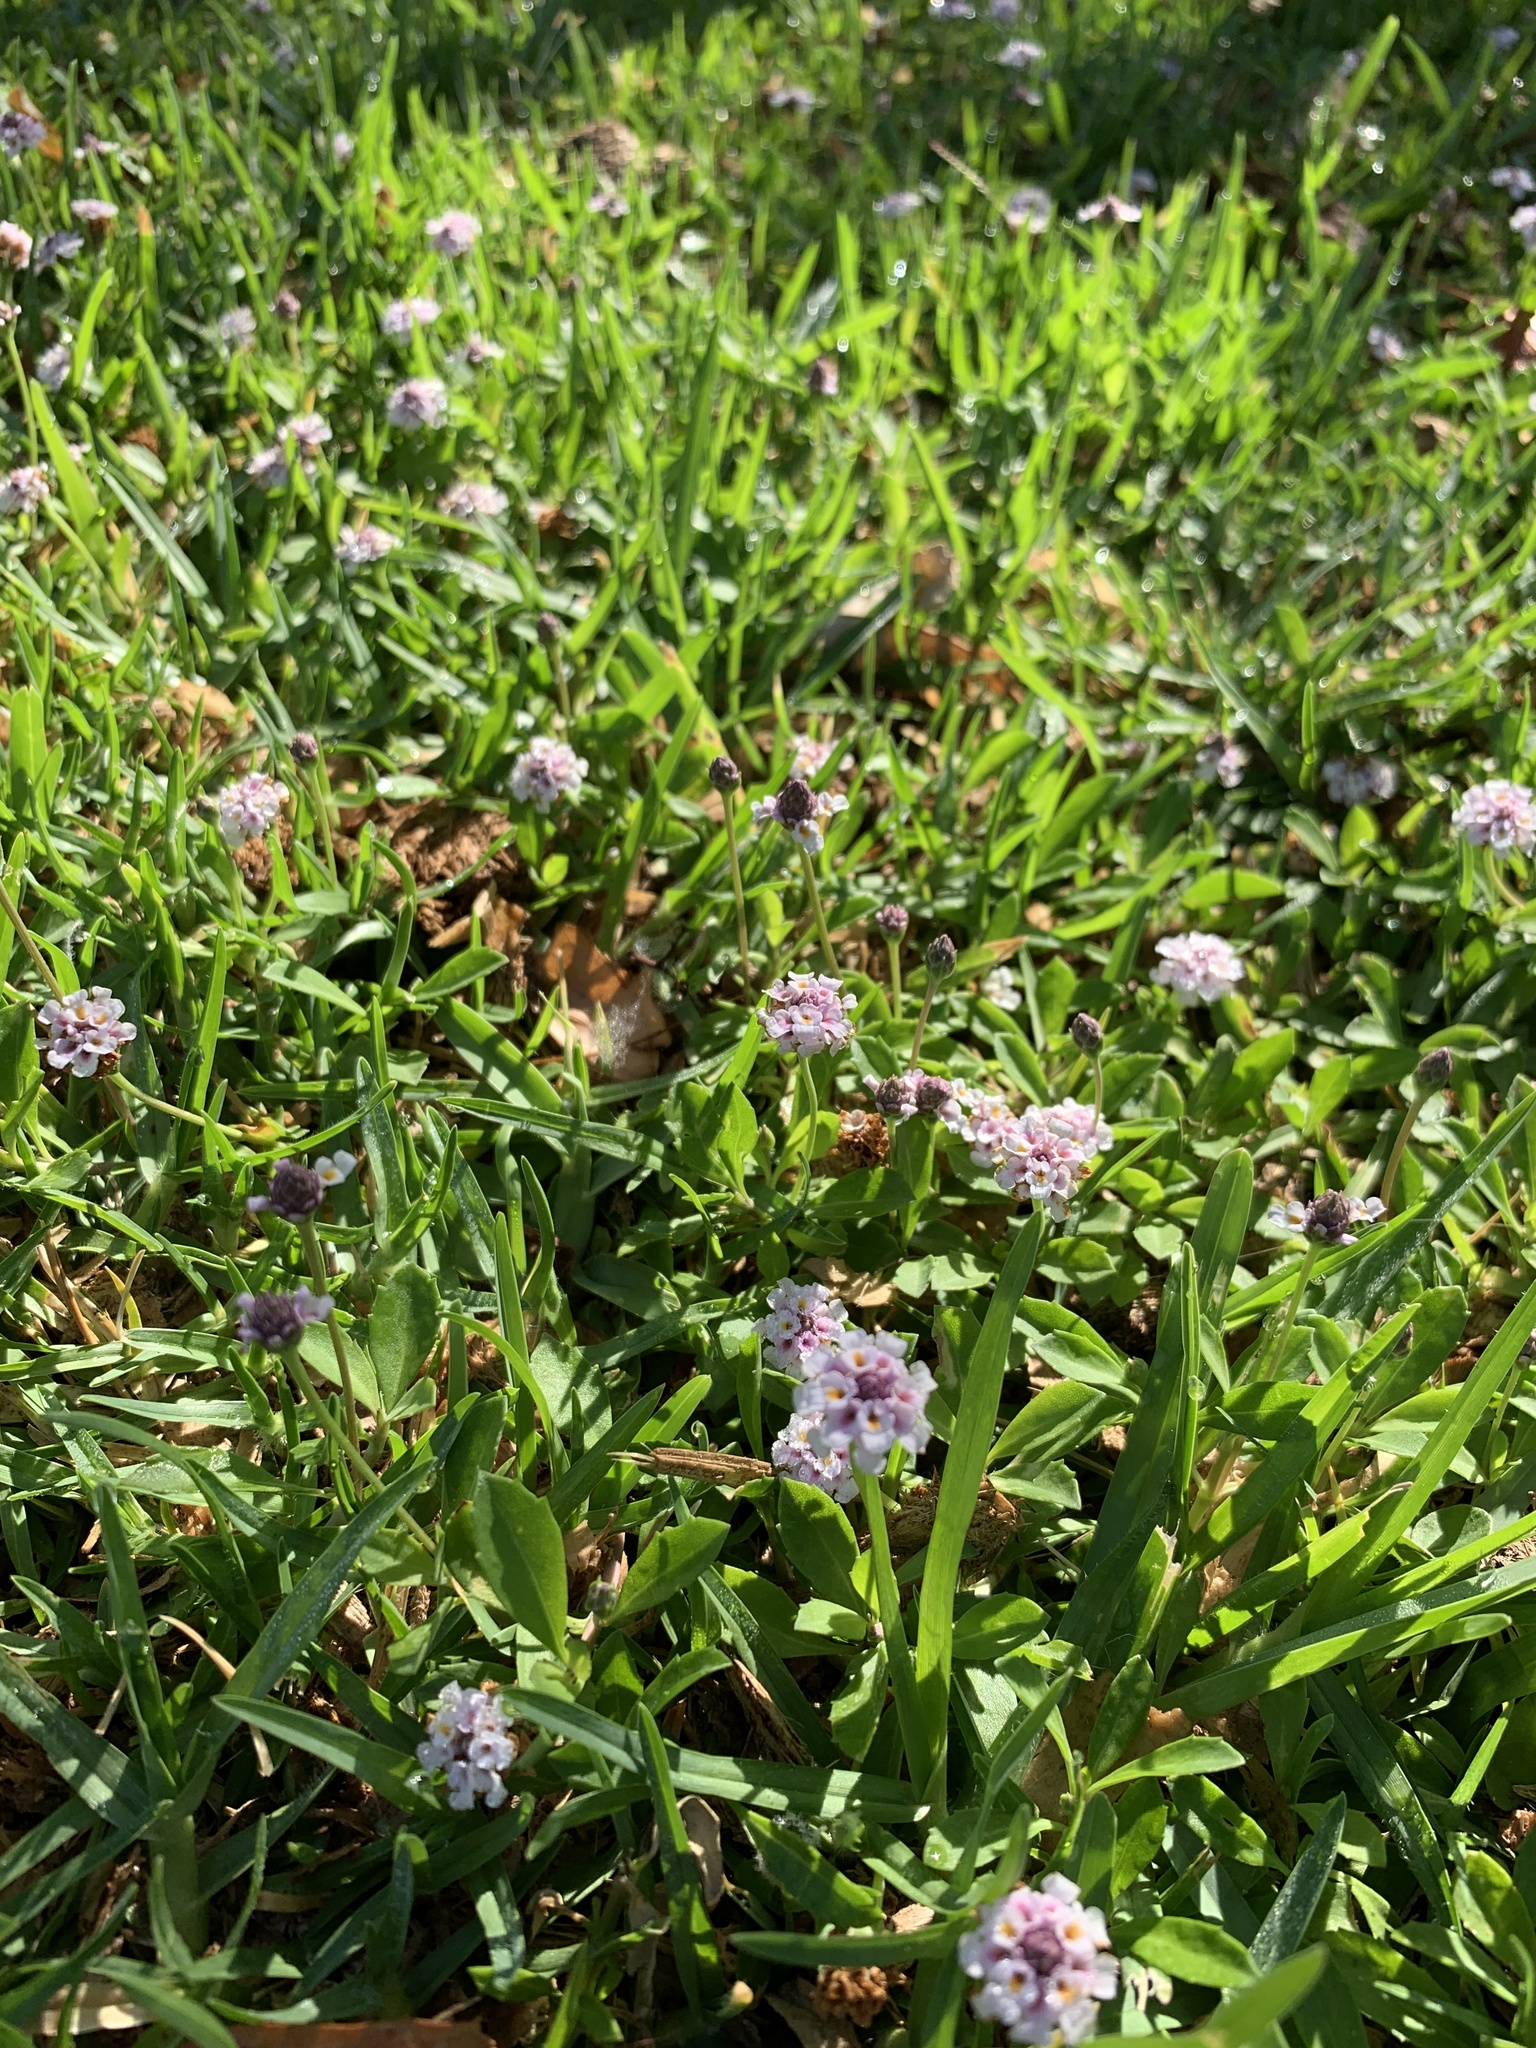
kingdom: Plantae
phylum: Tracheophyta
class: Magnoliopsida
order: Lamiales
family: Verbenaceae
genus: Phyla
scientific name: Phyla nodiflora
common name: Frogfruit
